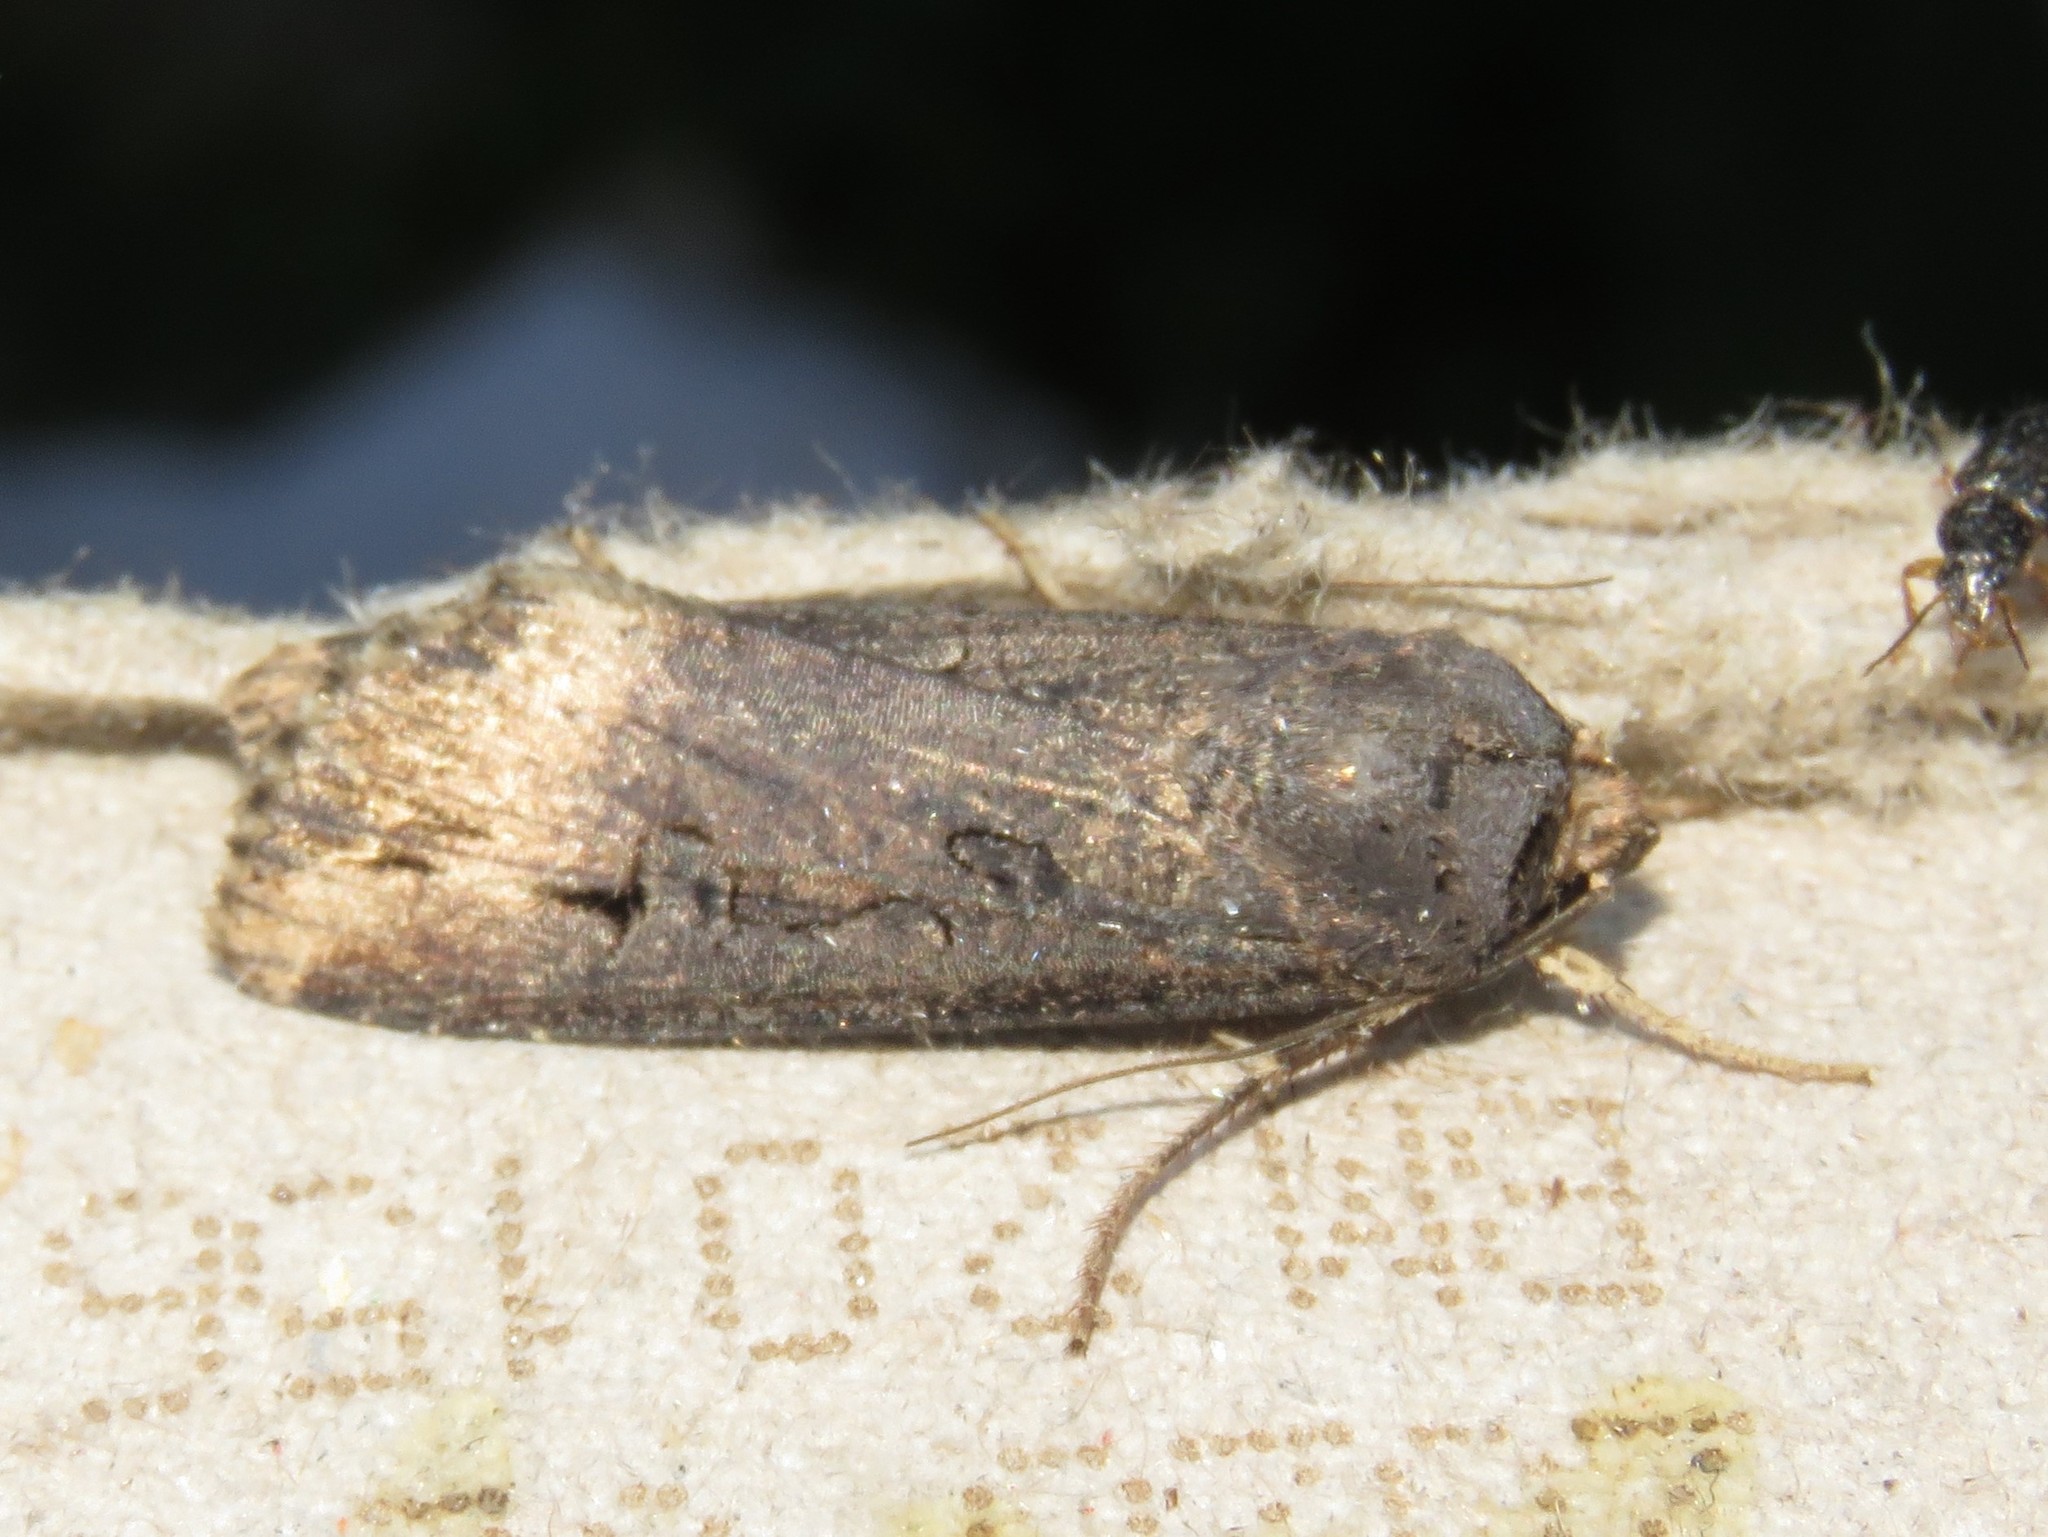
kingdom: Animalia
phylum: Arthropoda
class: Insecta
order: Lepidoptera
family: Noctuidae
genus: Agrotis
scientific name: Agrotis ipsilon
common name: Dark sword-grass
